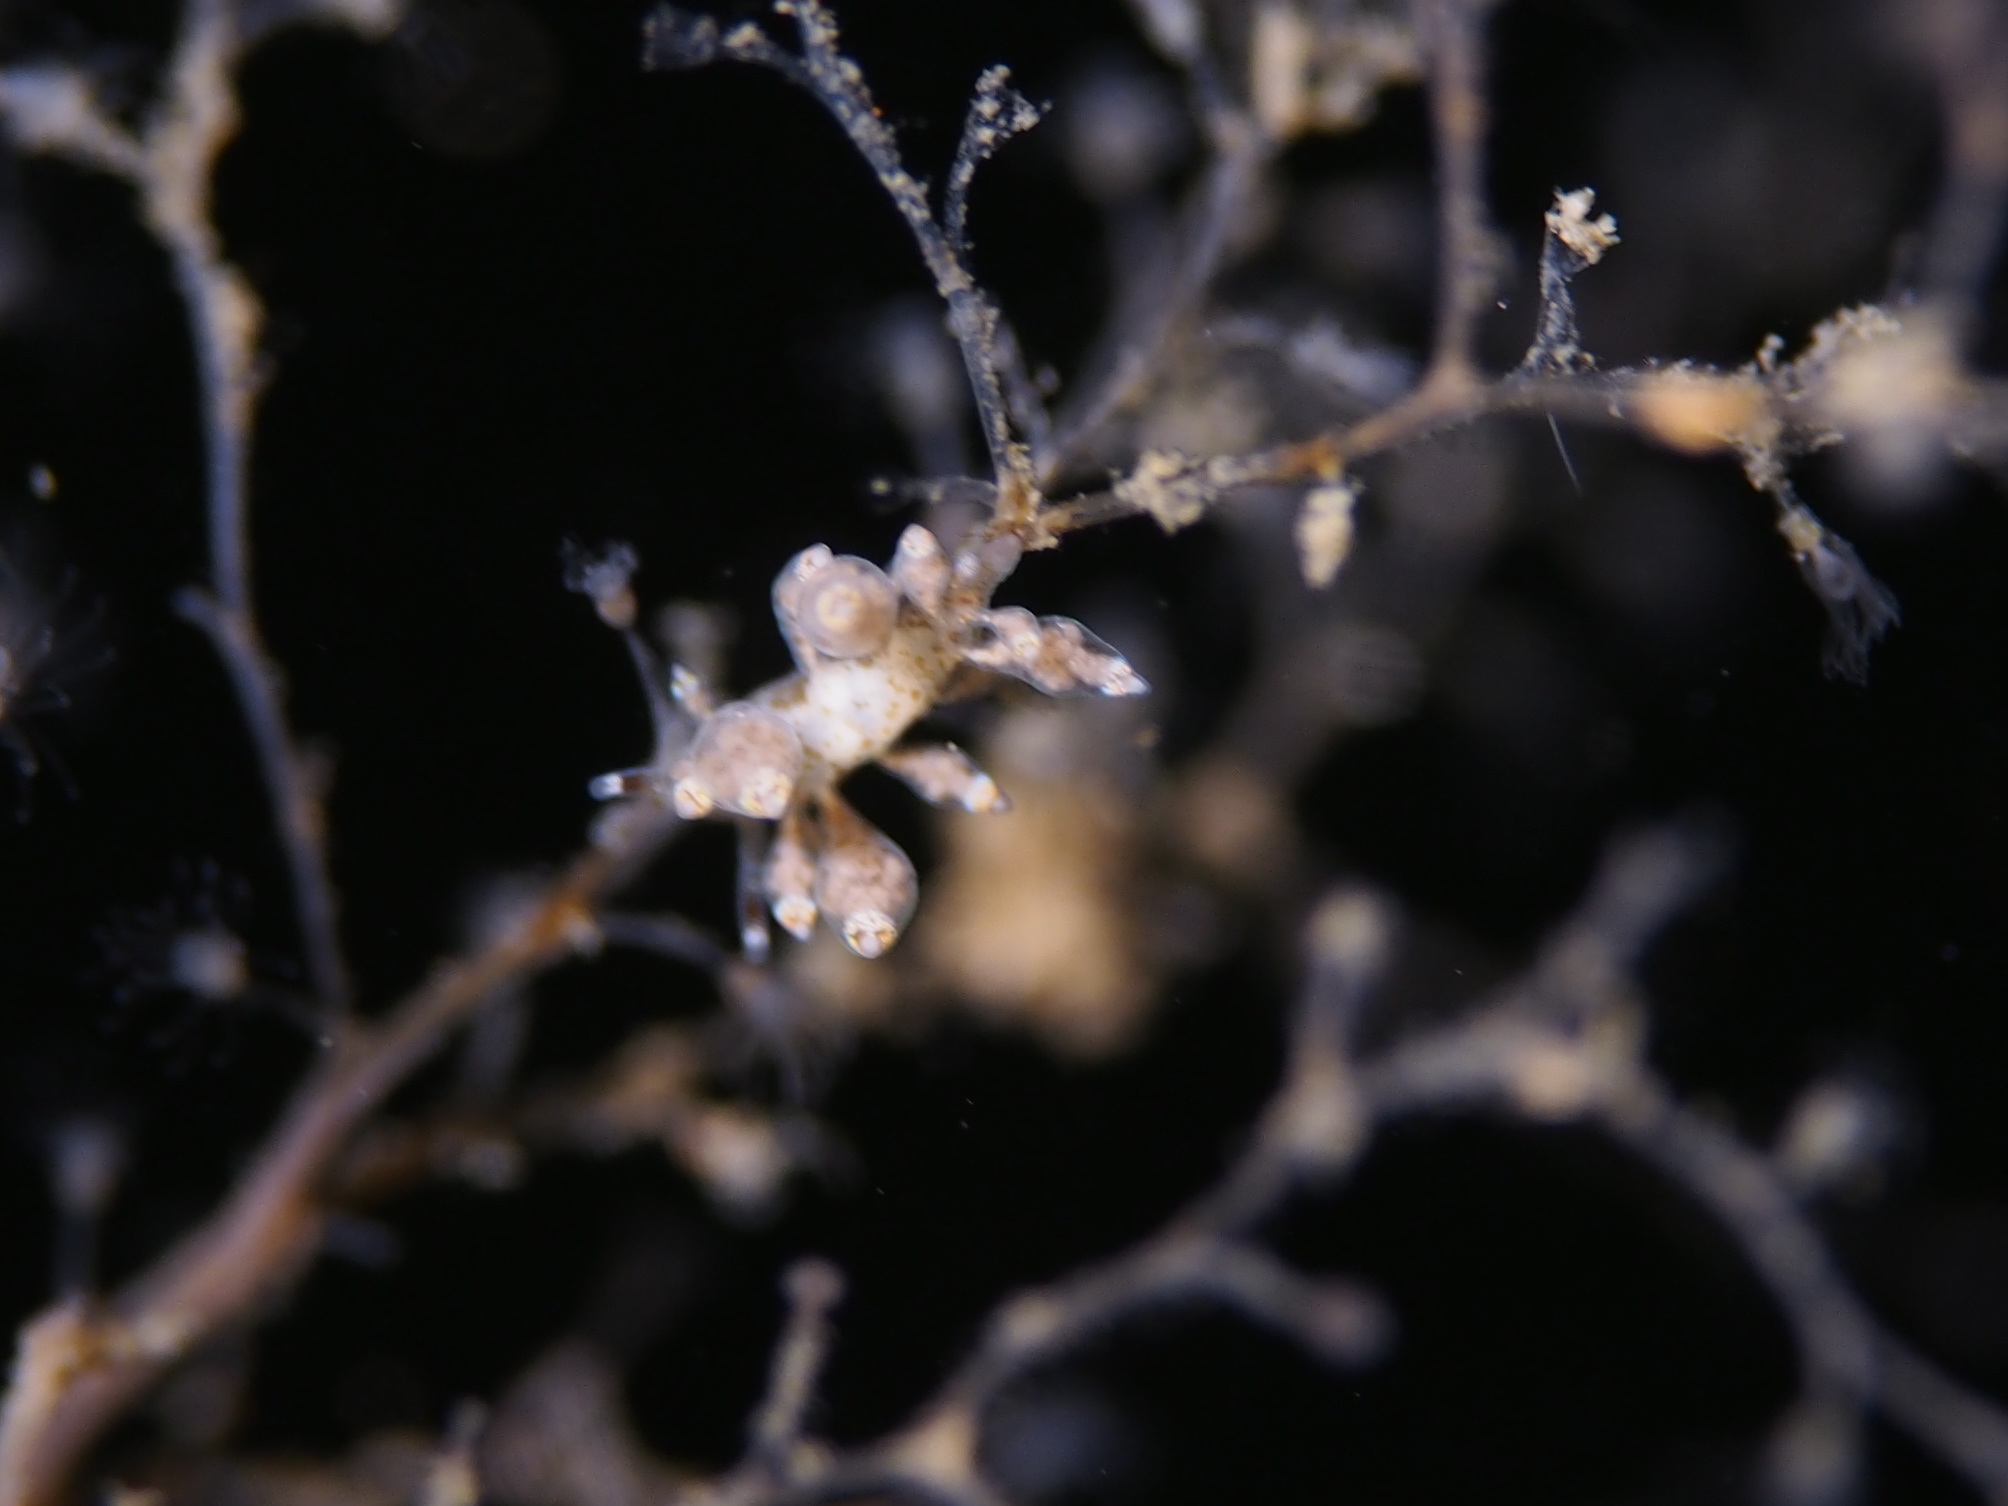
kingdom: Animalia
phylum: Mollusca
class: Gastropoda
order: Nudibranchia
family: Eubranchidae
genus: Eubranchus
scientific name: Eubranchus exiguus
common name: Balloon aeolis
